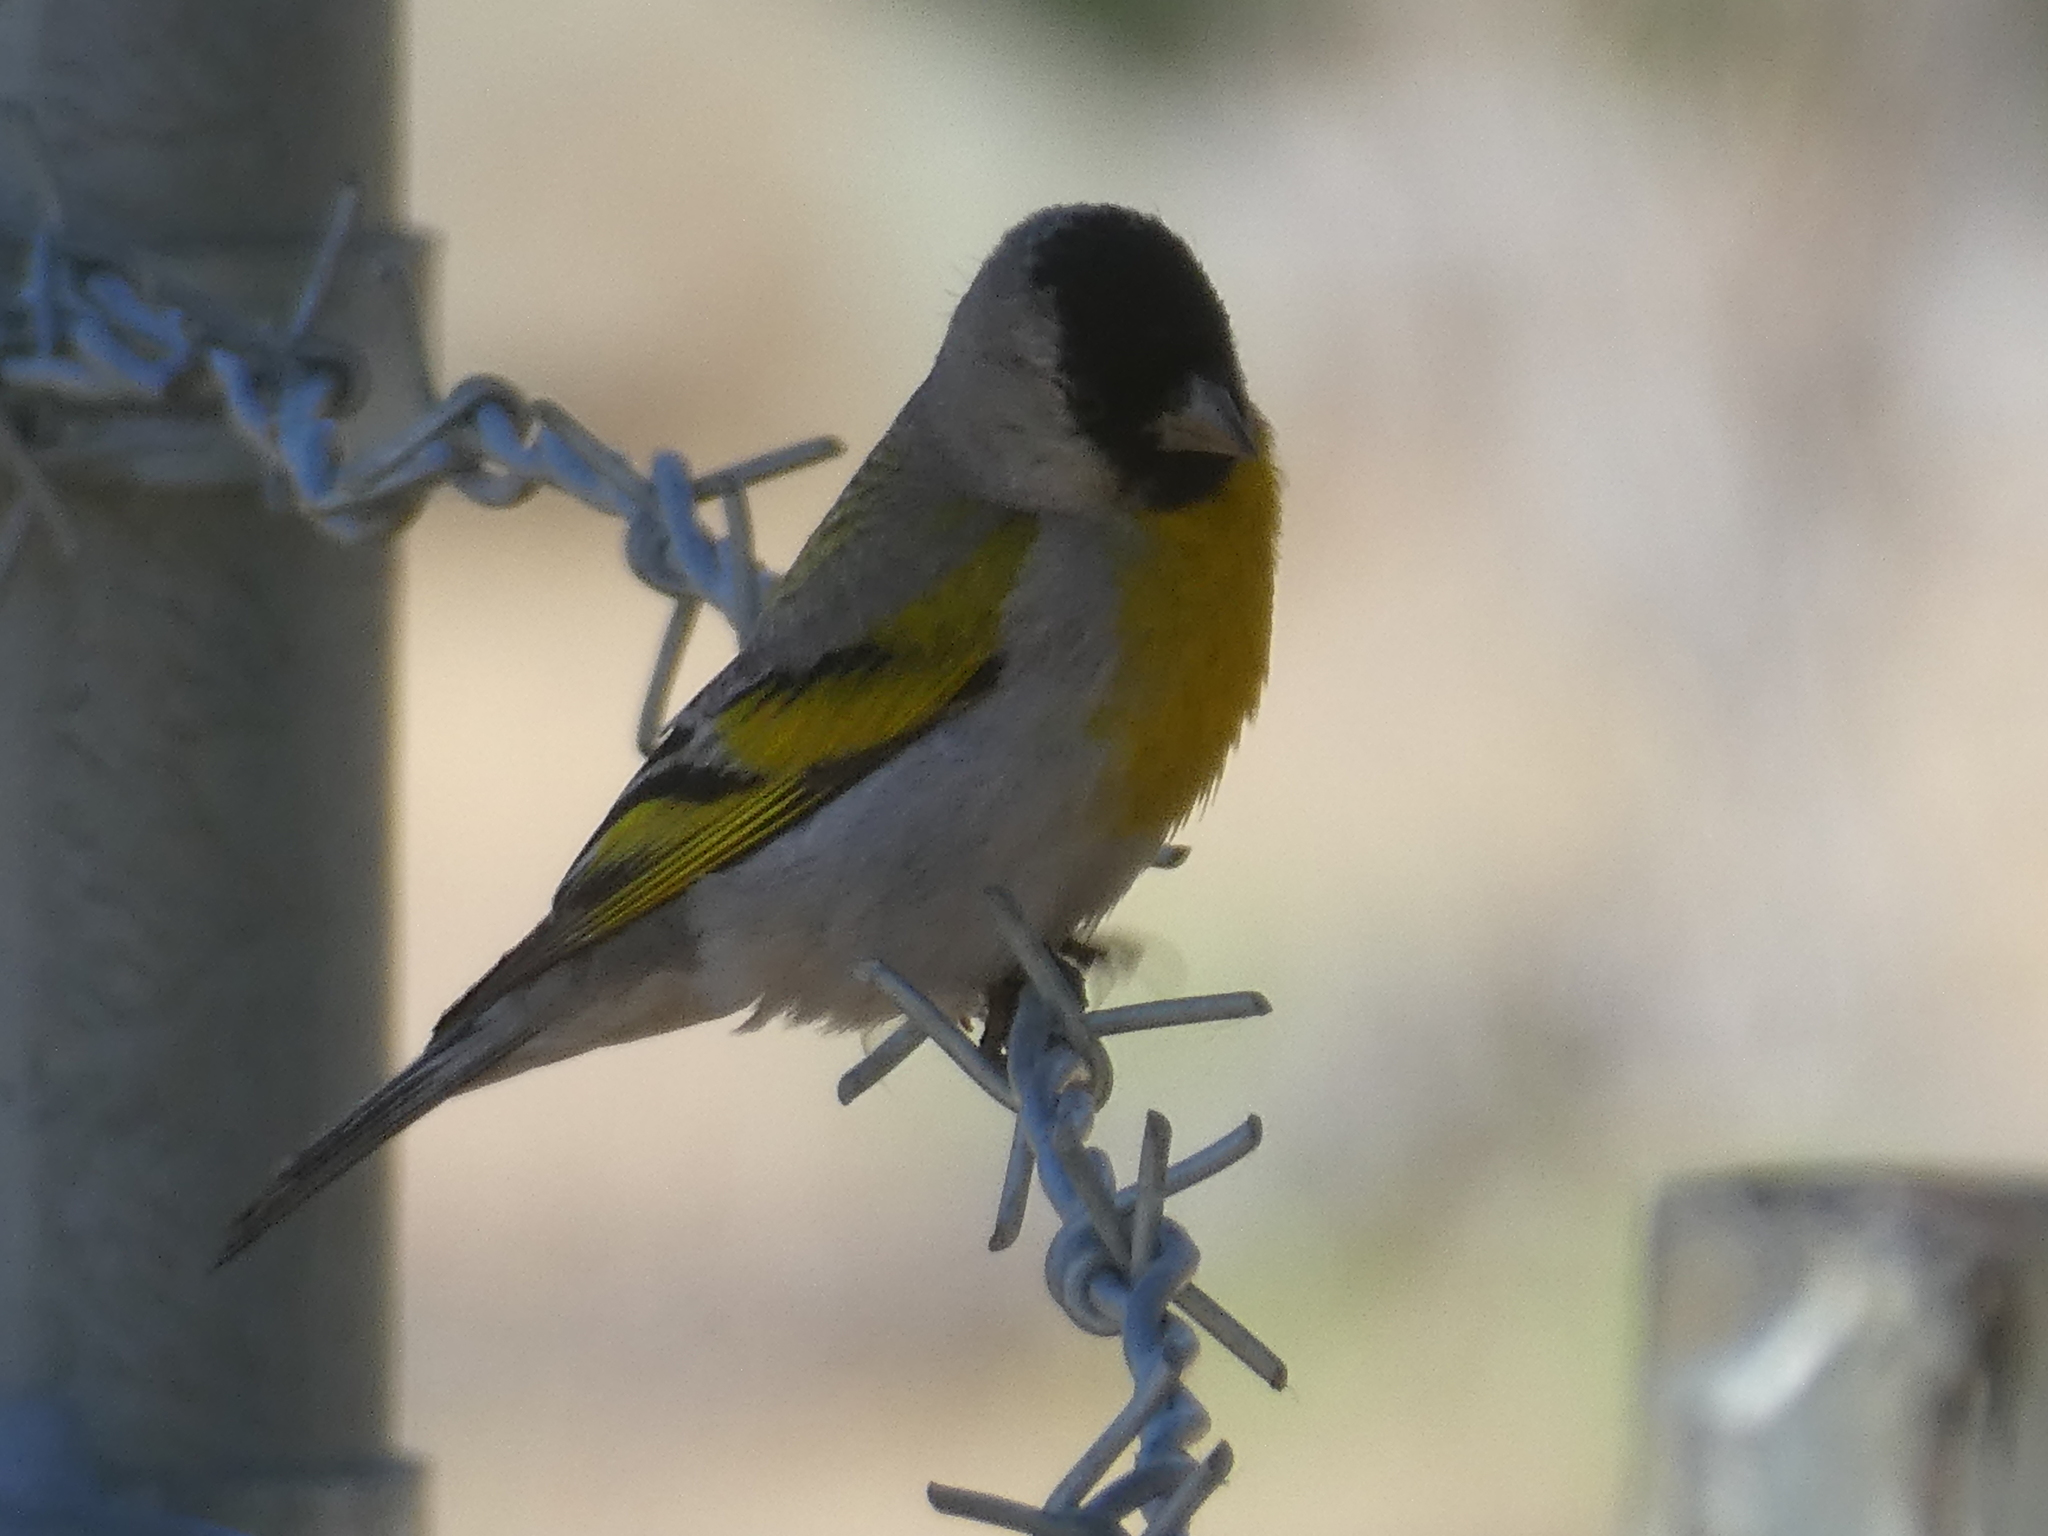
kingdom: Animalia
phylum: Chordata
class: Aves
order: Passeriformes
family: Fringillidae
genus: Spinus
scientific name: Spinus lawrencei
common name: Lawrence's goldfinch
